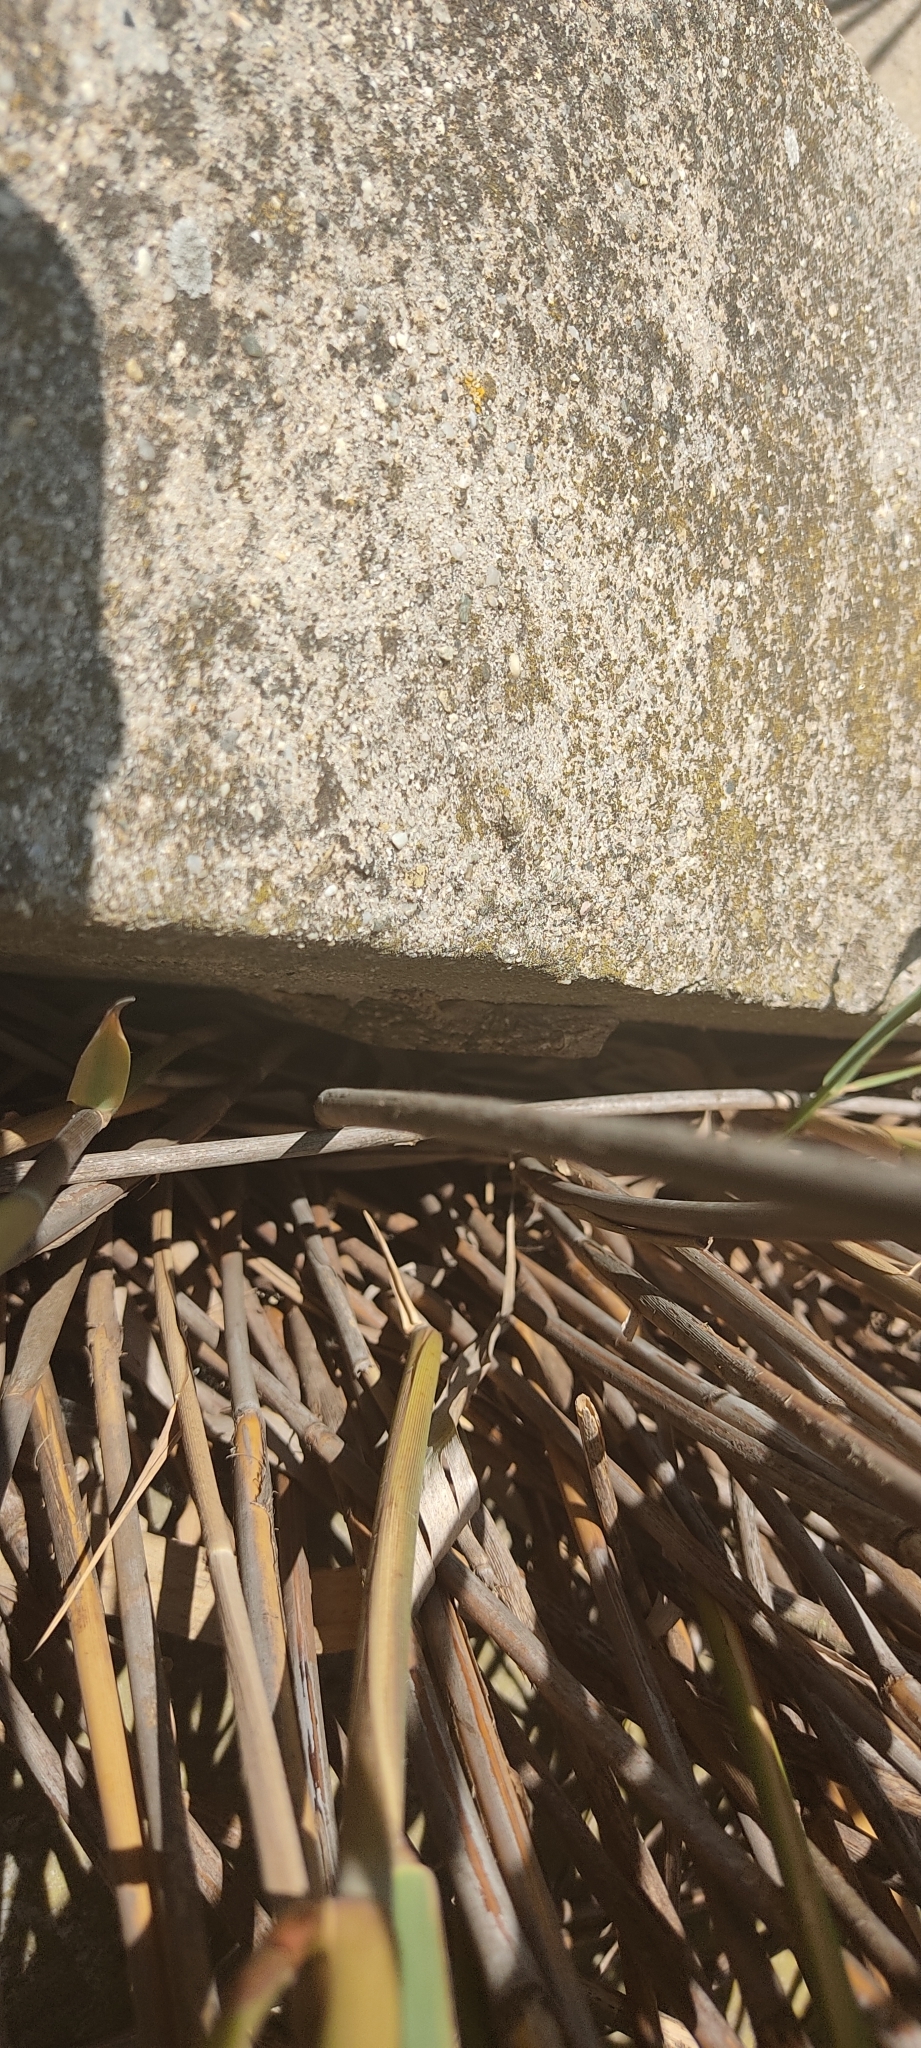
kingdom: Animalia
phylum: Chordata
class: Squamata
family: Phyllodactylidae
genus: Tarentola
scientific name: Tarentola mauritanica
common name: Moorish gecko
